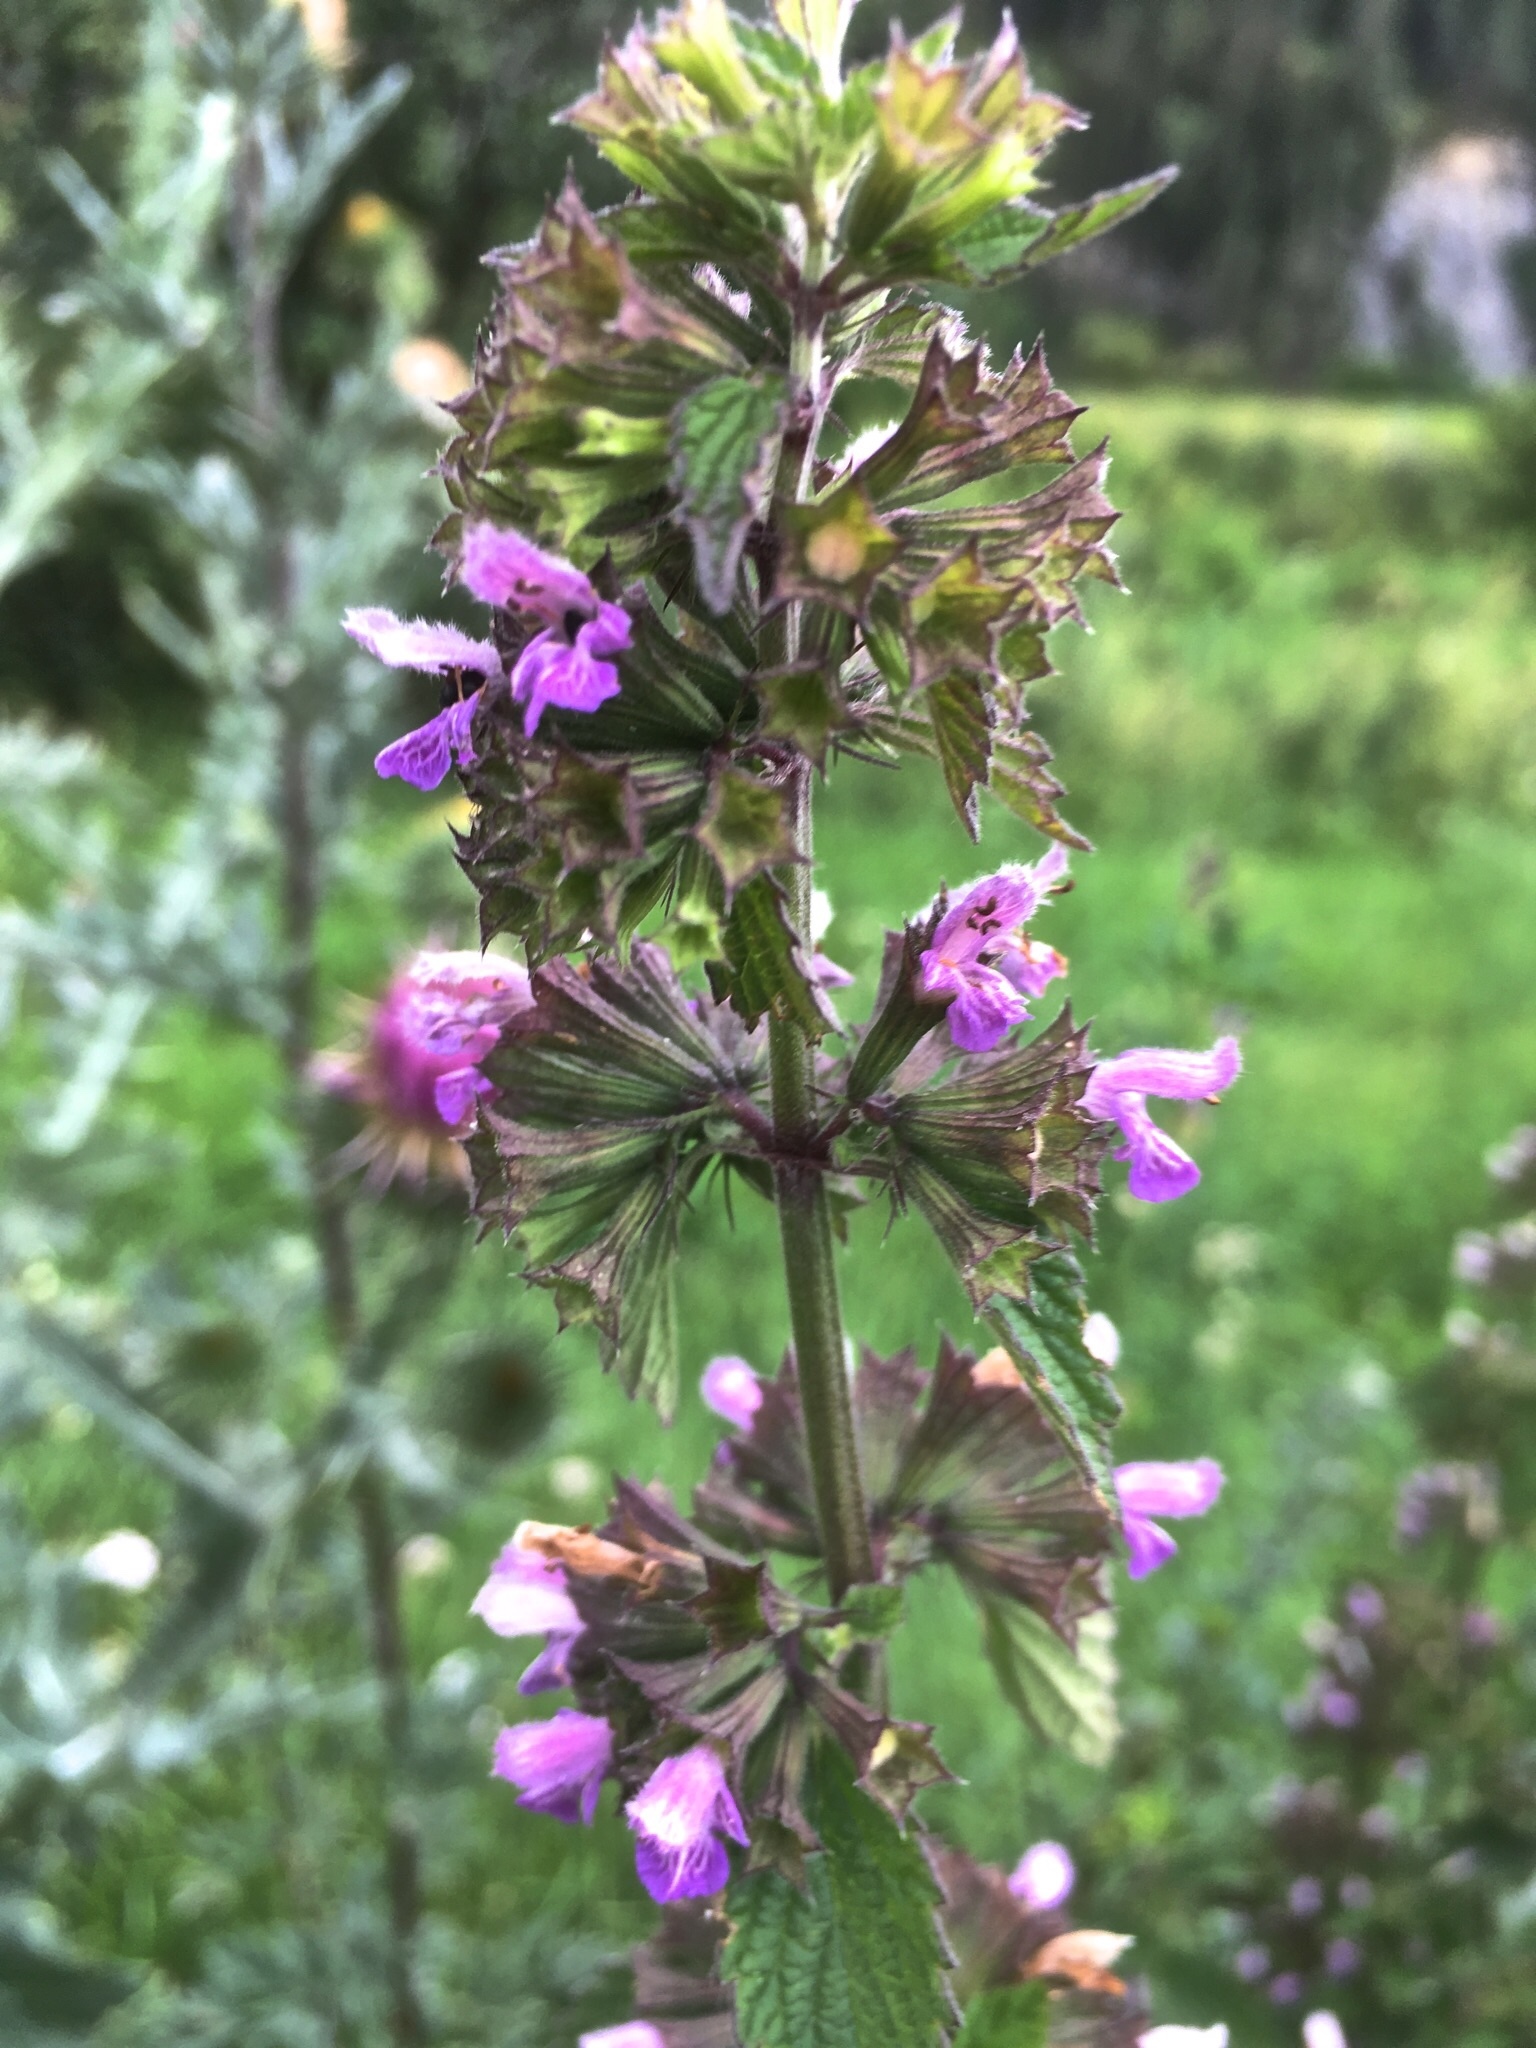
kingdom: Plantae
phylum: Tracheophyta
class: Magnoliopsida
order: Lamiales
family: Lamiaceae
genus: Ballota
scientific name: Ballota nigra
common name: Black horehound
